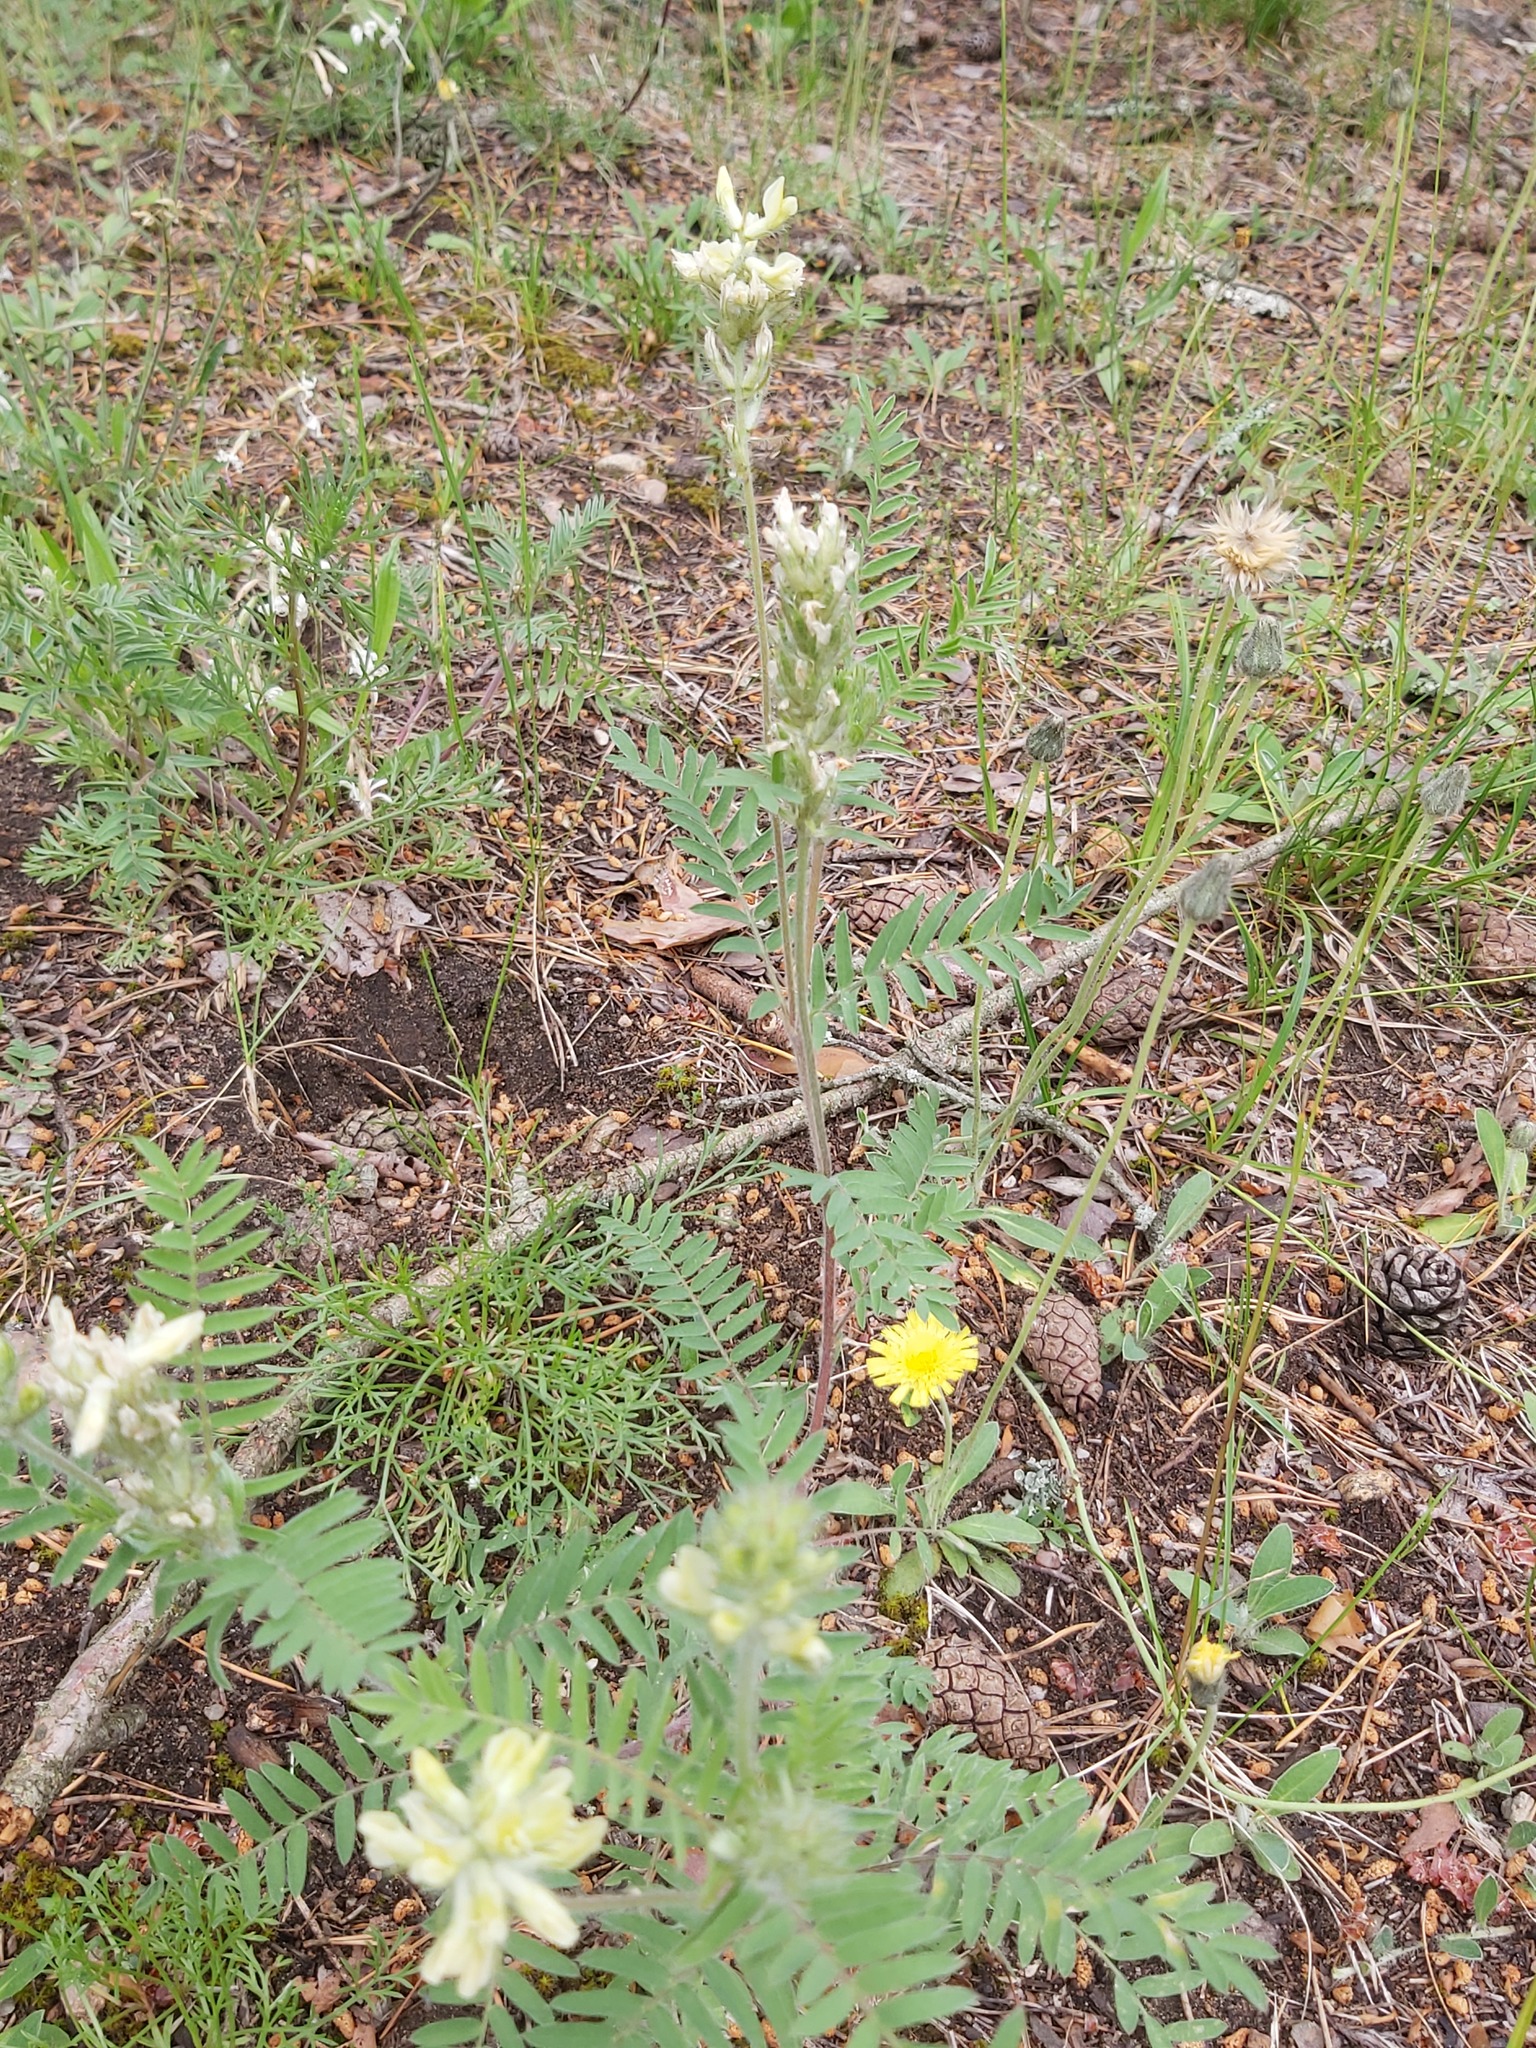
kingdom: Plantae
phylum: Tracheophyta
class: Magnoliopsida
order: Fabales
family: Fabaceae
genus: Oxytropis
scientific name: Oxytropis pilosa
